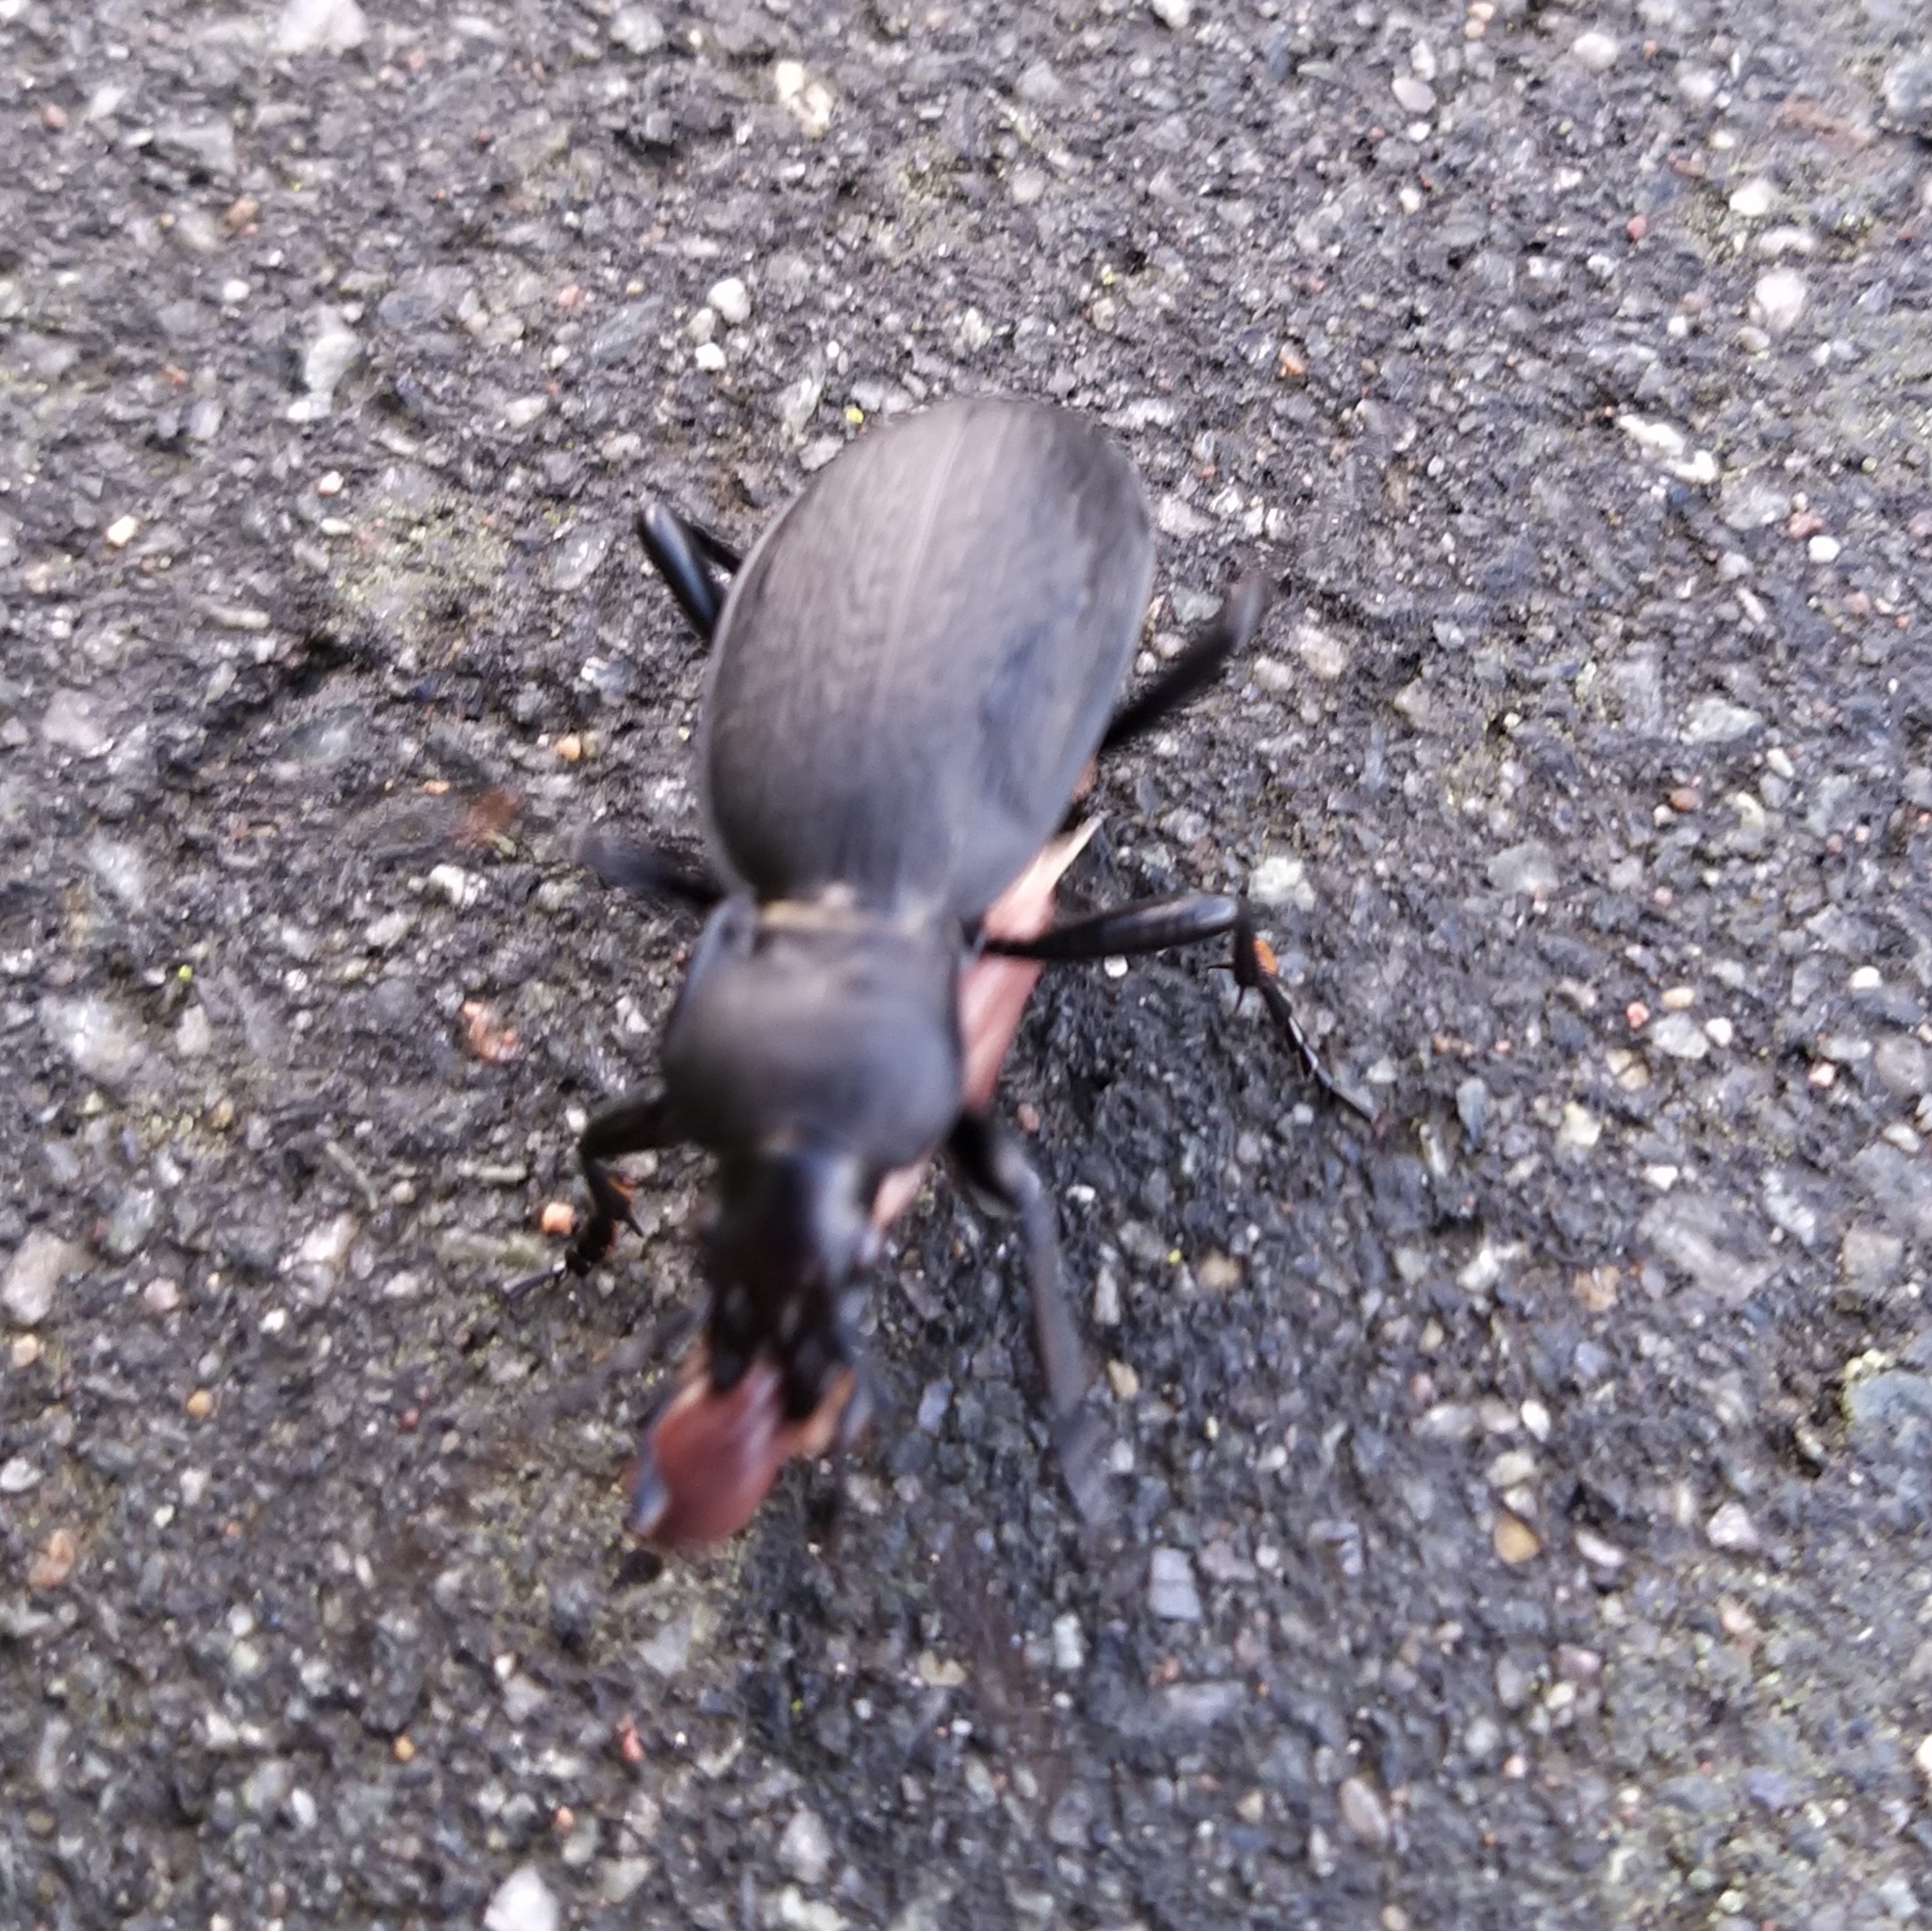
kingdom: Animalia
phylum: Arthropoda
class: Insecta
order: Coleoptera
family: Carabidae
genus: Carabus
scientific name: Carabus coriaceus
